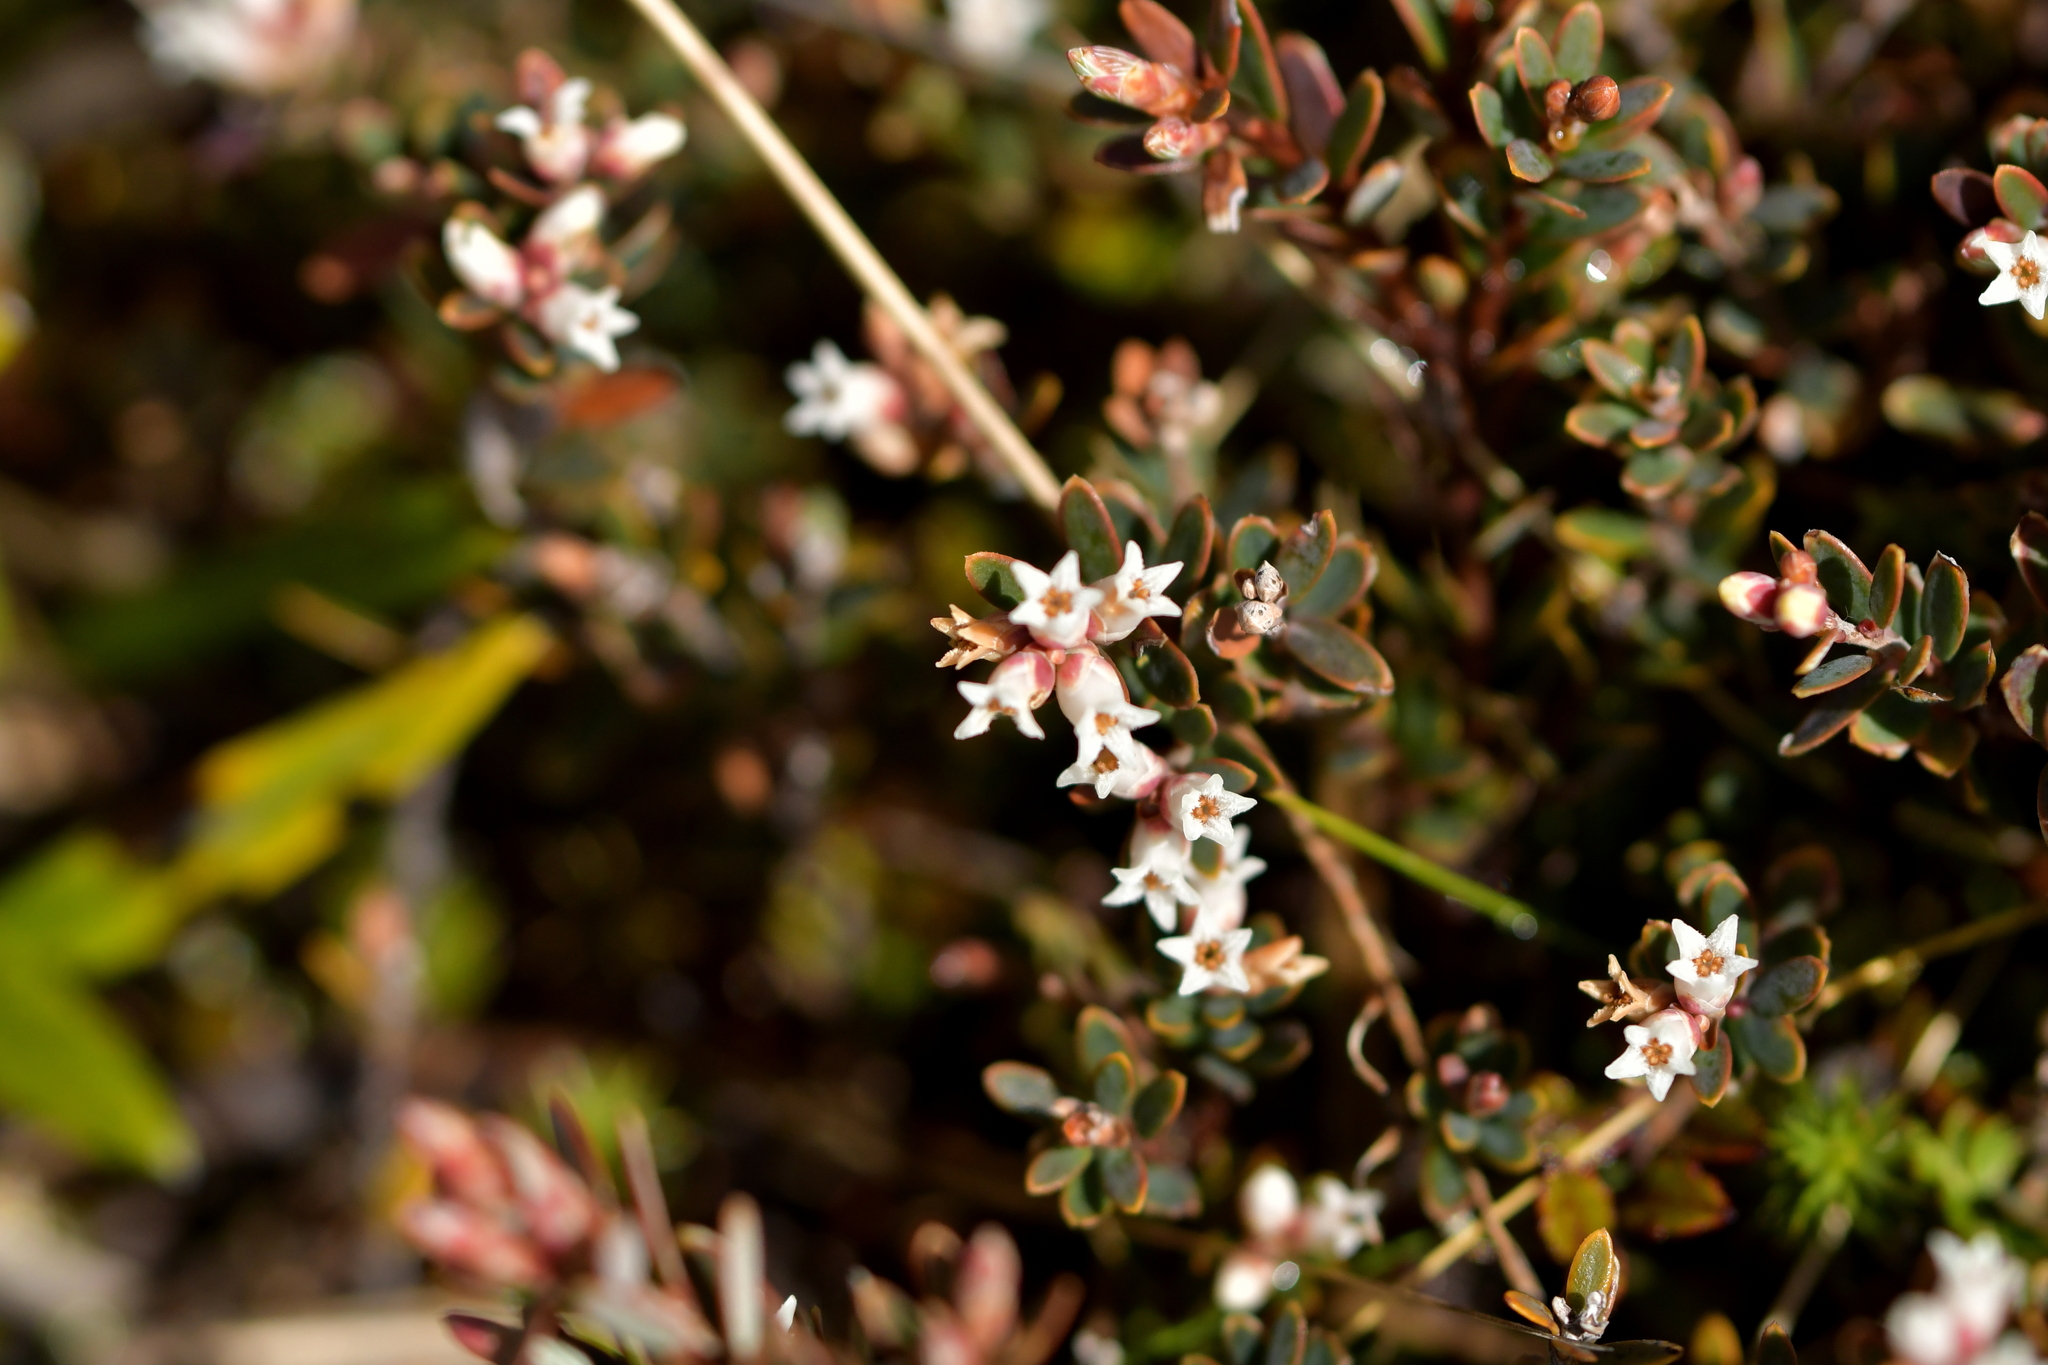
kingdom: Plantae
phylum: Tracheophyta
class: Magnoliopsida
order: Ericales
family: Ericaceae
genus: Pentachondra
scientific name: Pentachondra pumila
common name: Carpet-heath
